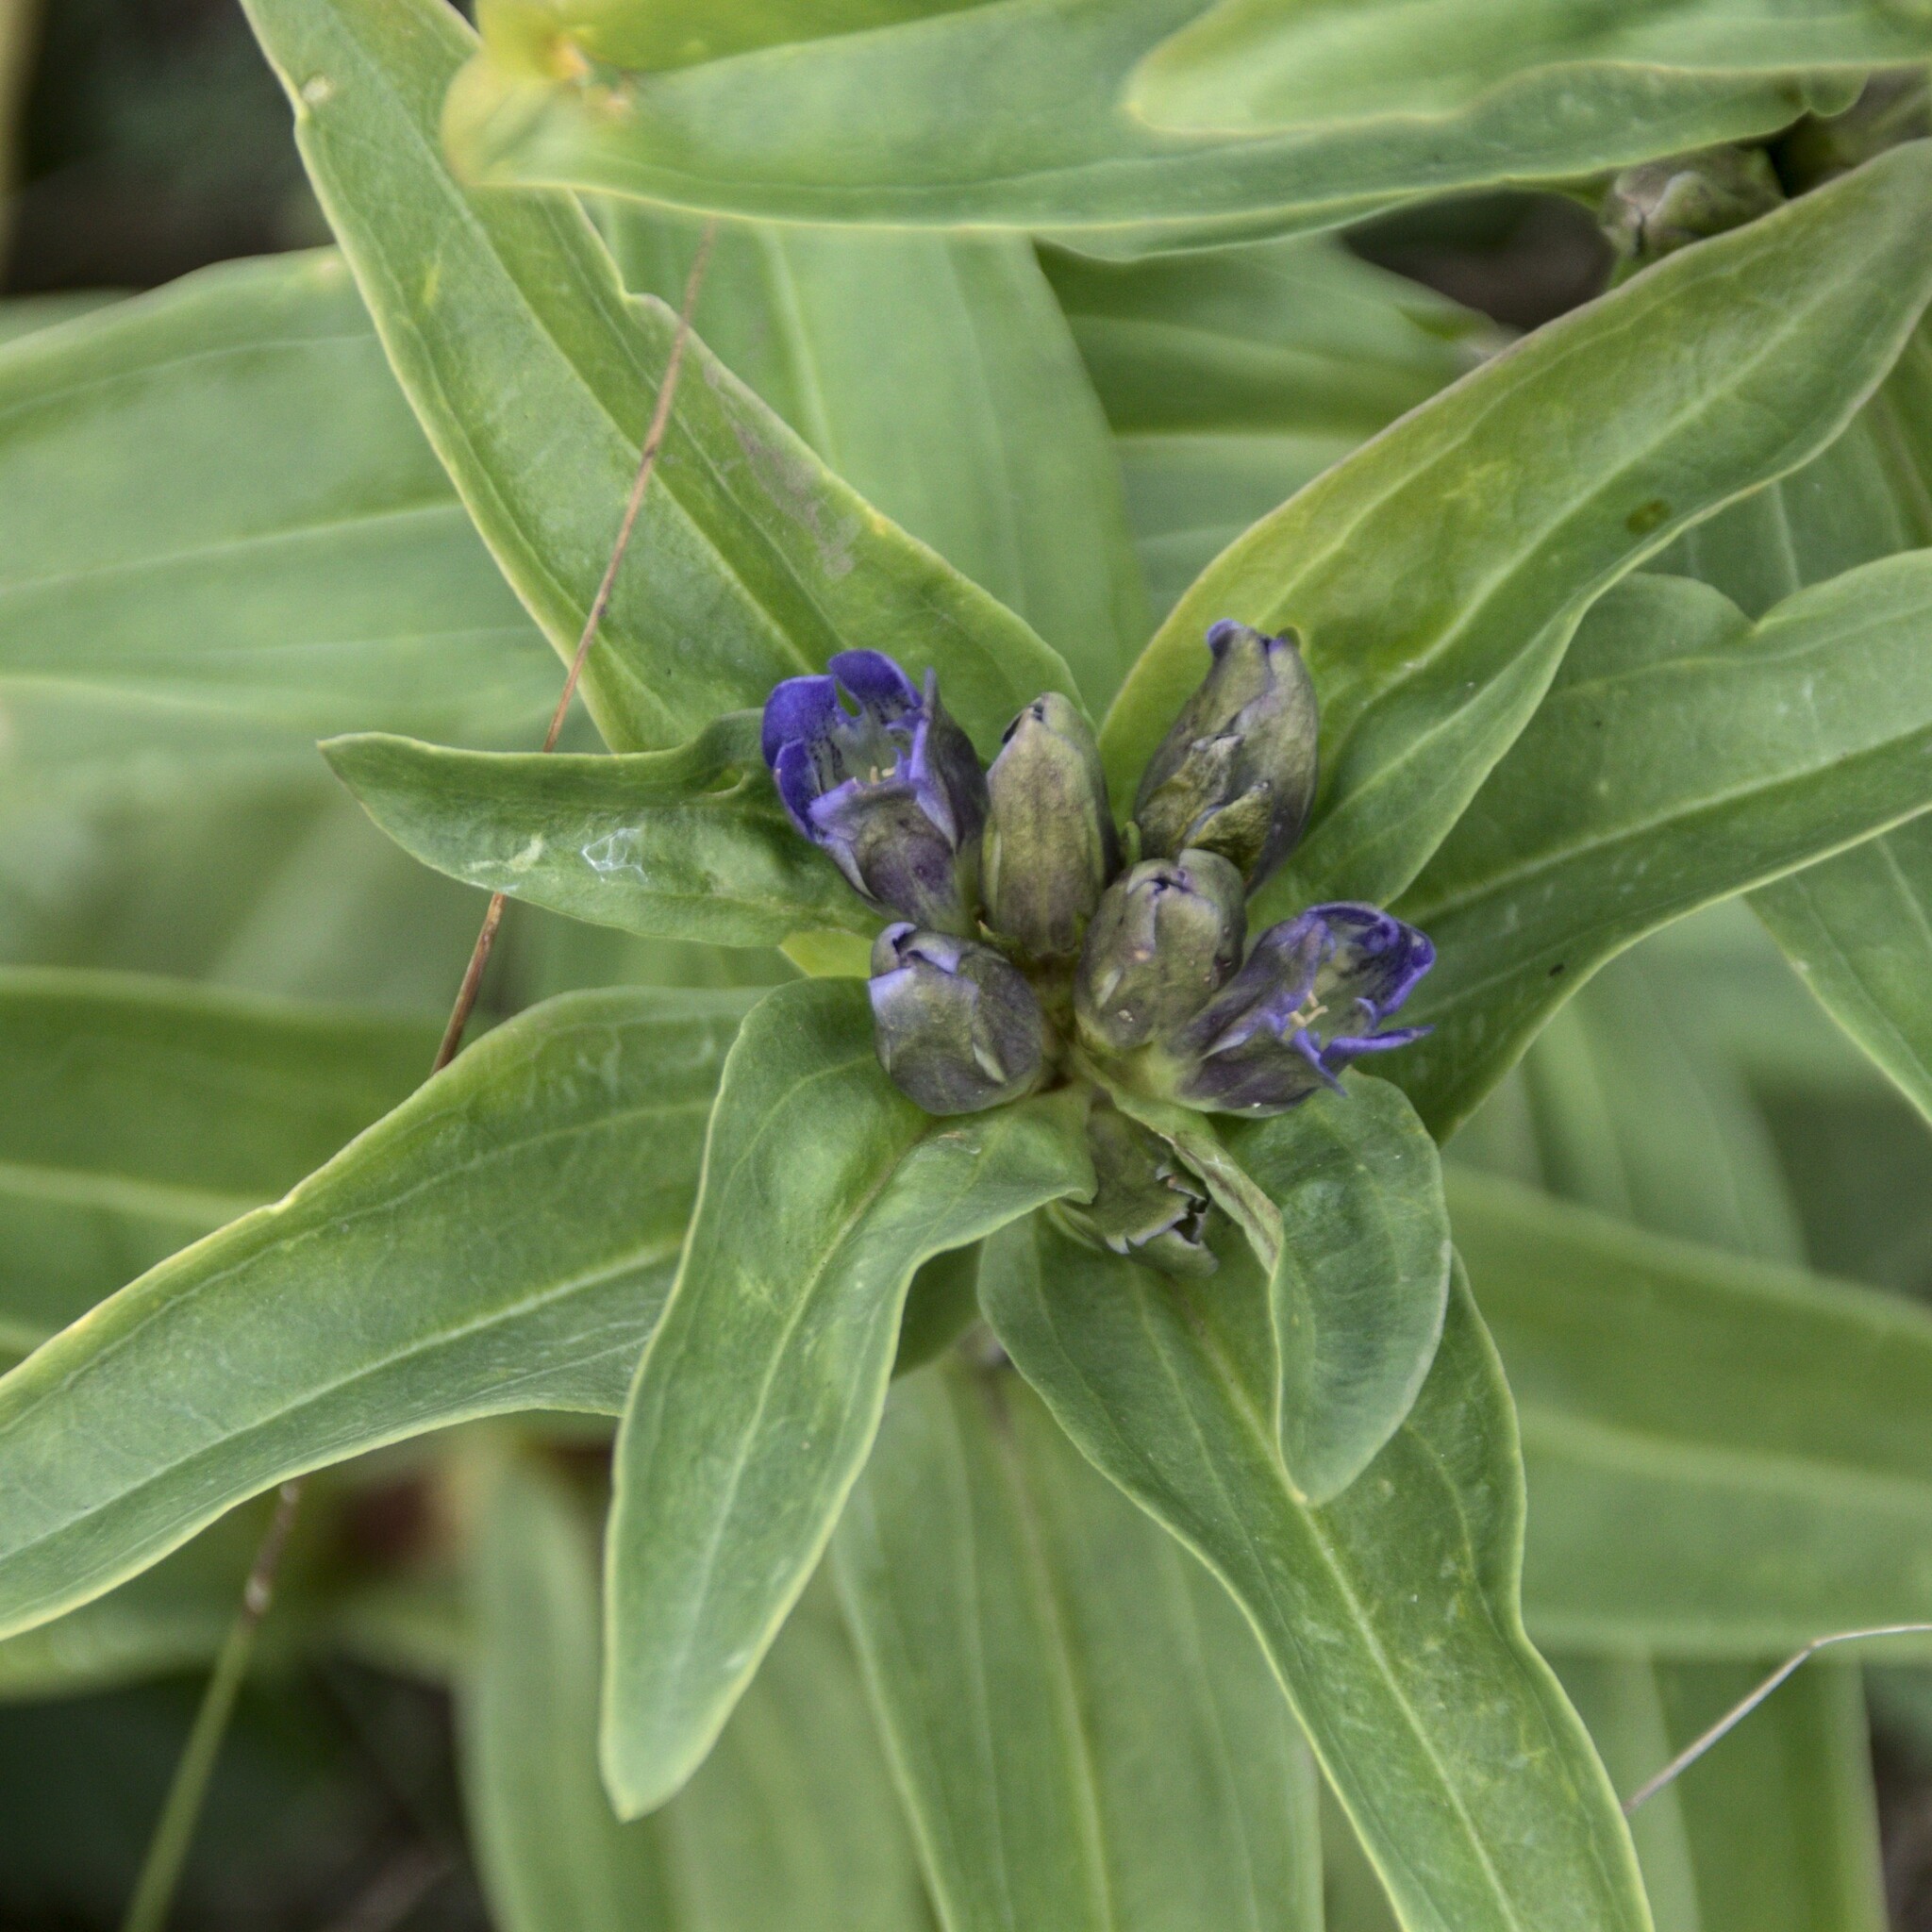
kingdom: Plantae
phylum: Tracheophyta
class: Magnoliopsida
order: Gentianales
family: Gentianaceae
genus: Gentiana
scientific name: Gentiana cruciata
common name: Cross gentian
